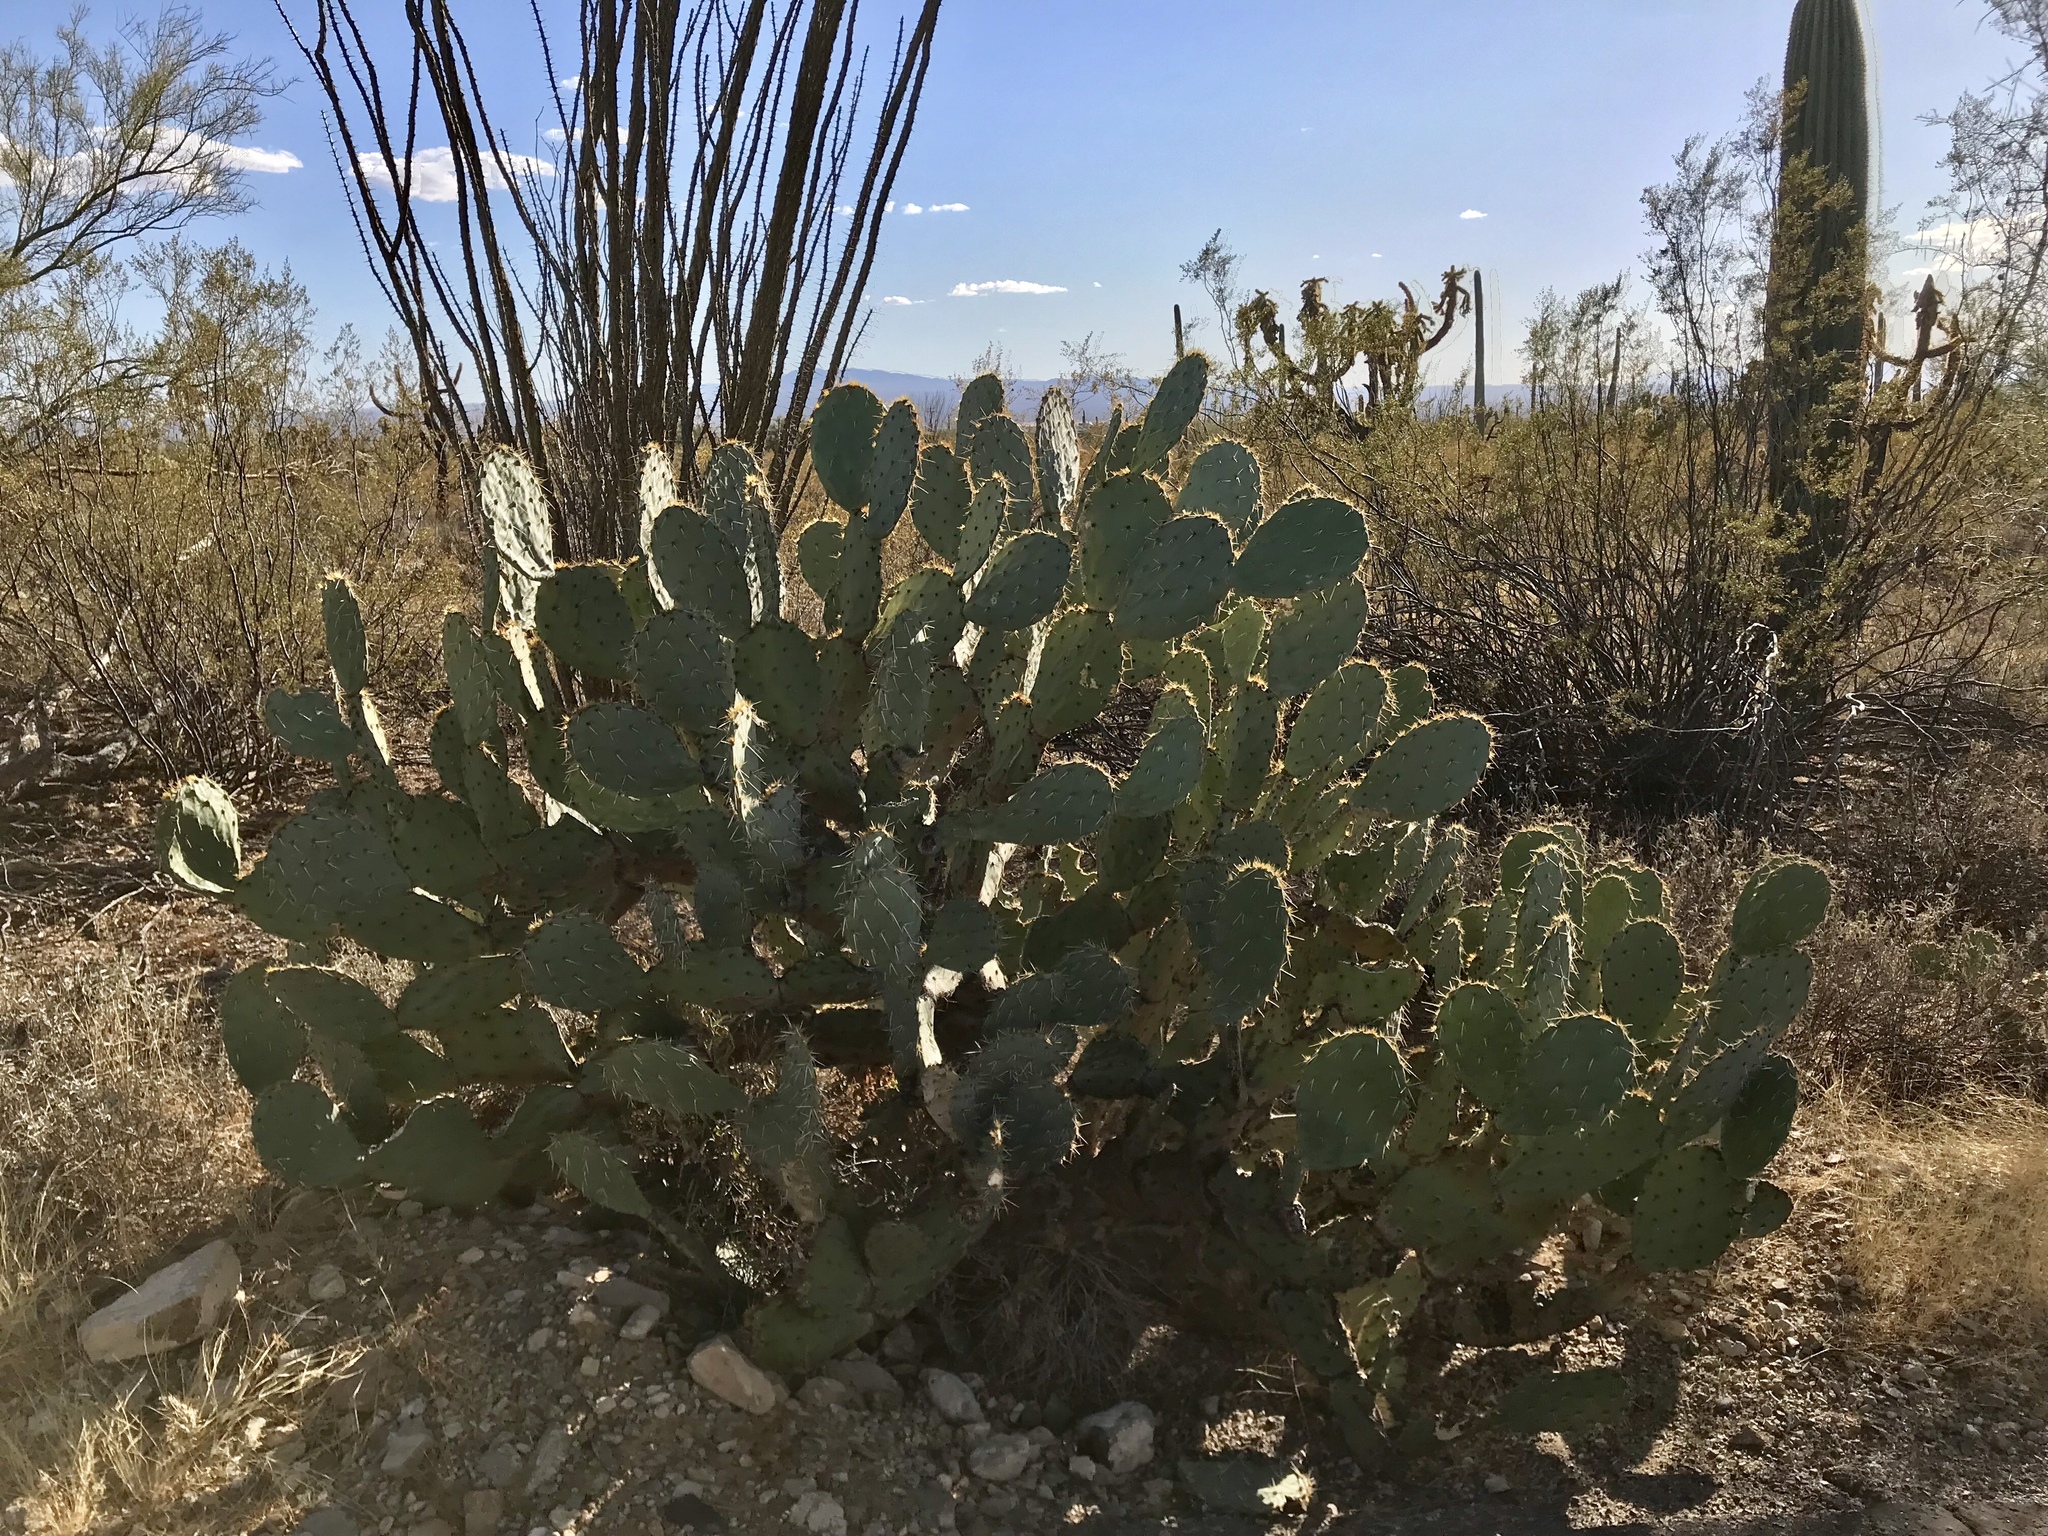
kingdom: Plantae
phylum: Tracheophyta
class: Magnoliopsida
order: Caryophyllales
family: Cactaceae
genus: Opuntia
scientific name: Opuntia engelmannii
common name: Cactus-apple
